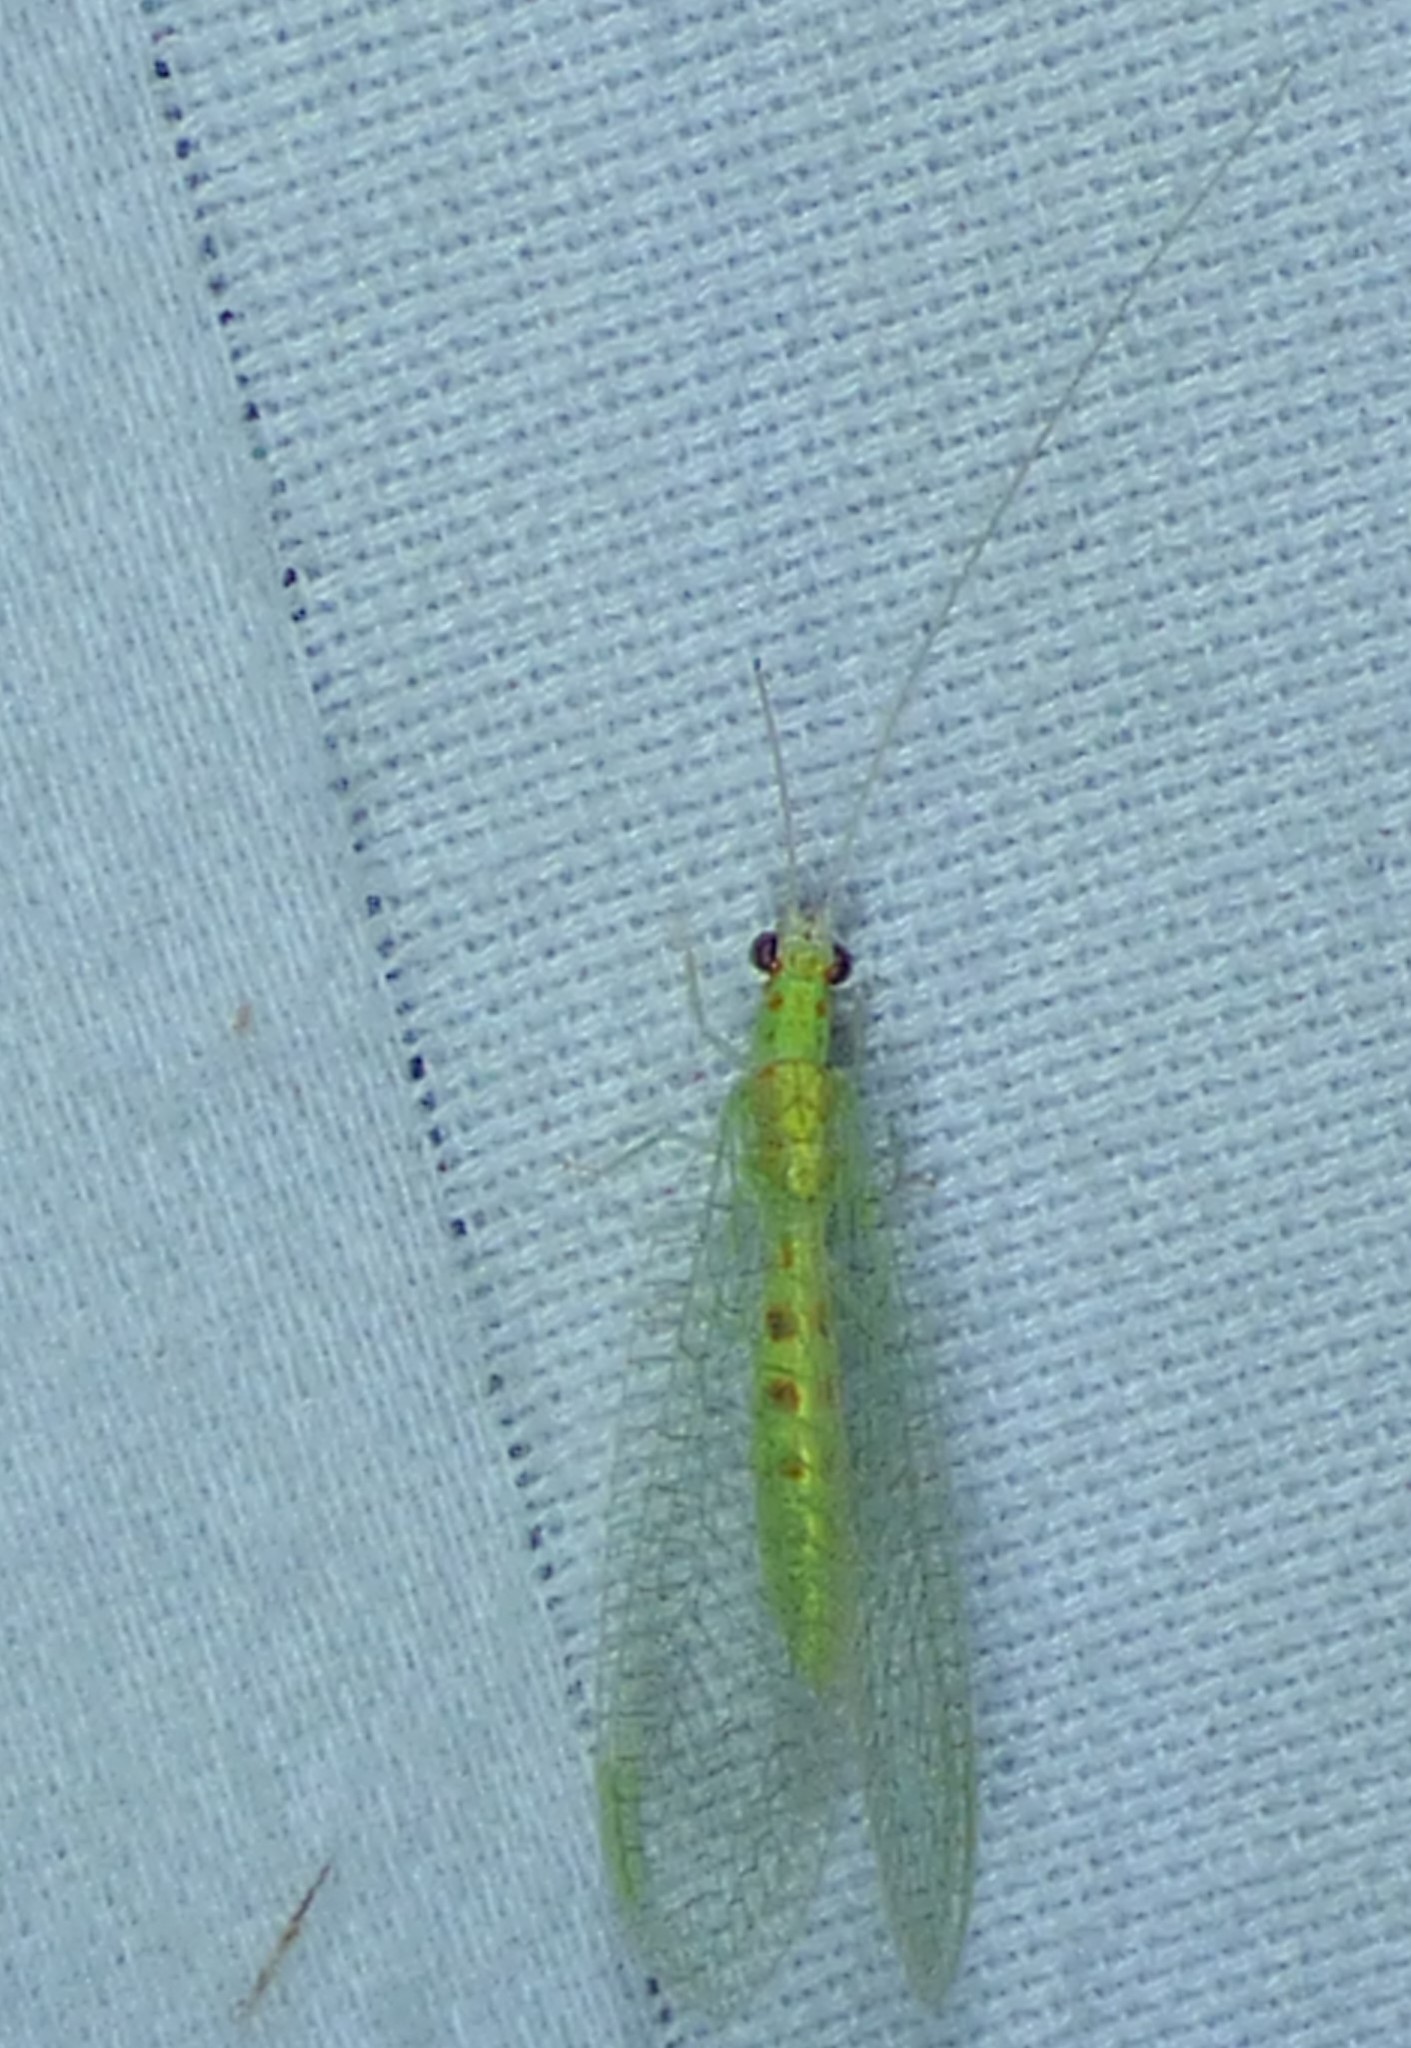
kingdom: Animalia
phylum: Arthropoda
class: Insecta
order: Neuroptera
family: Chrysopidae
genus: Chrysopa
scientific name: Chrysopa quadripunctata
